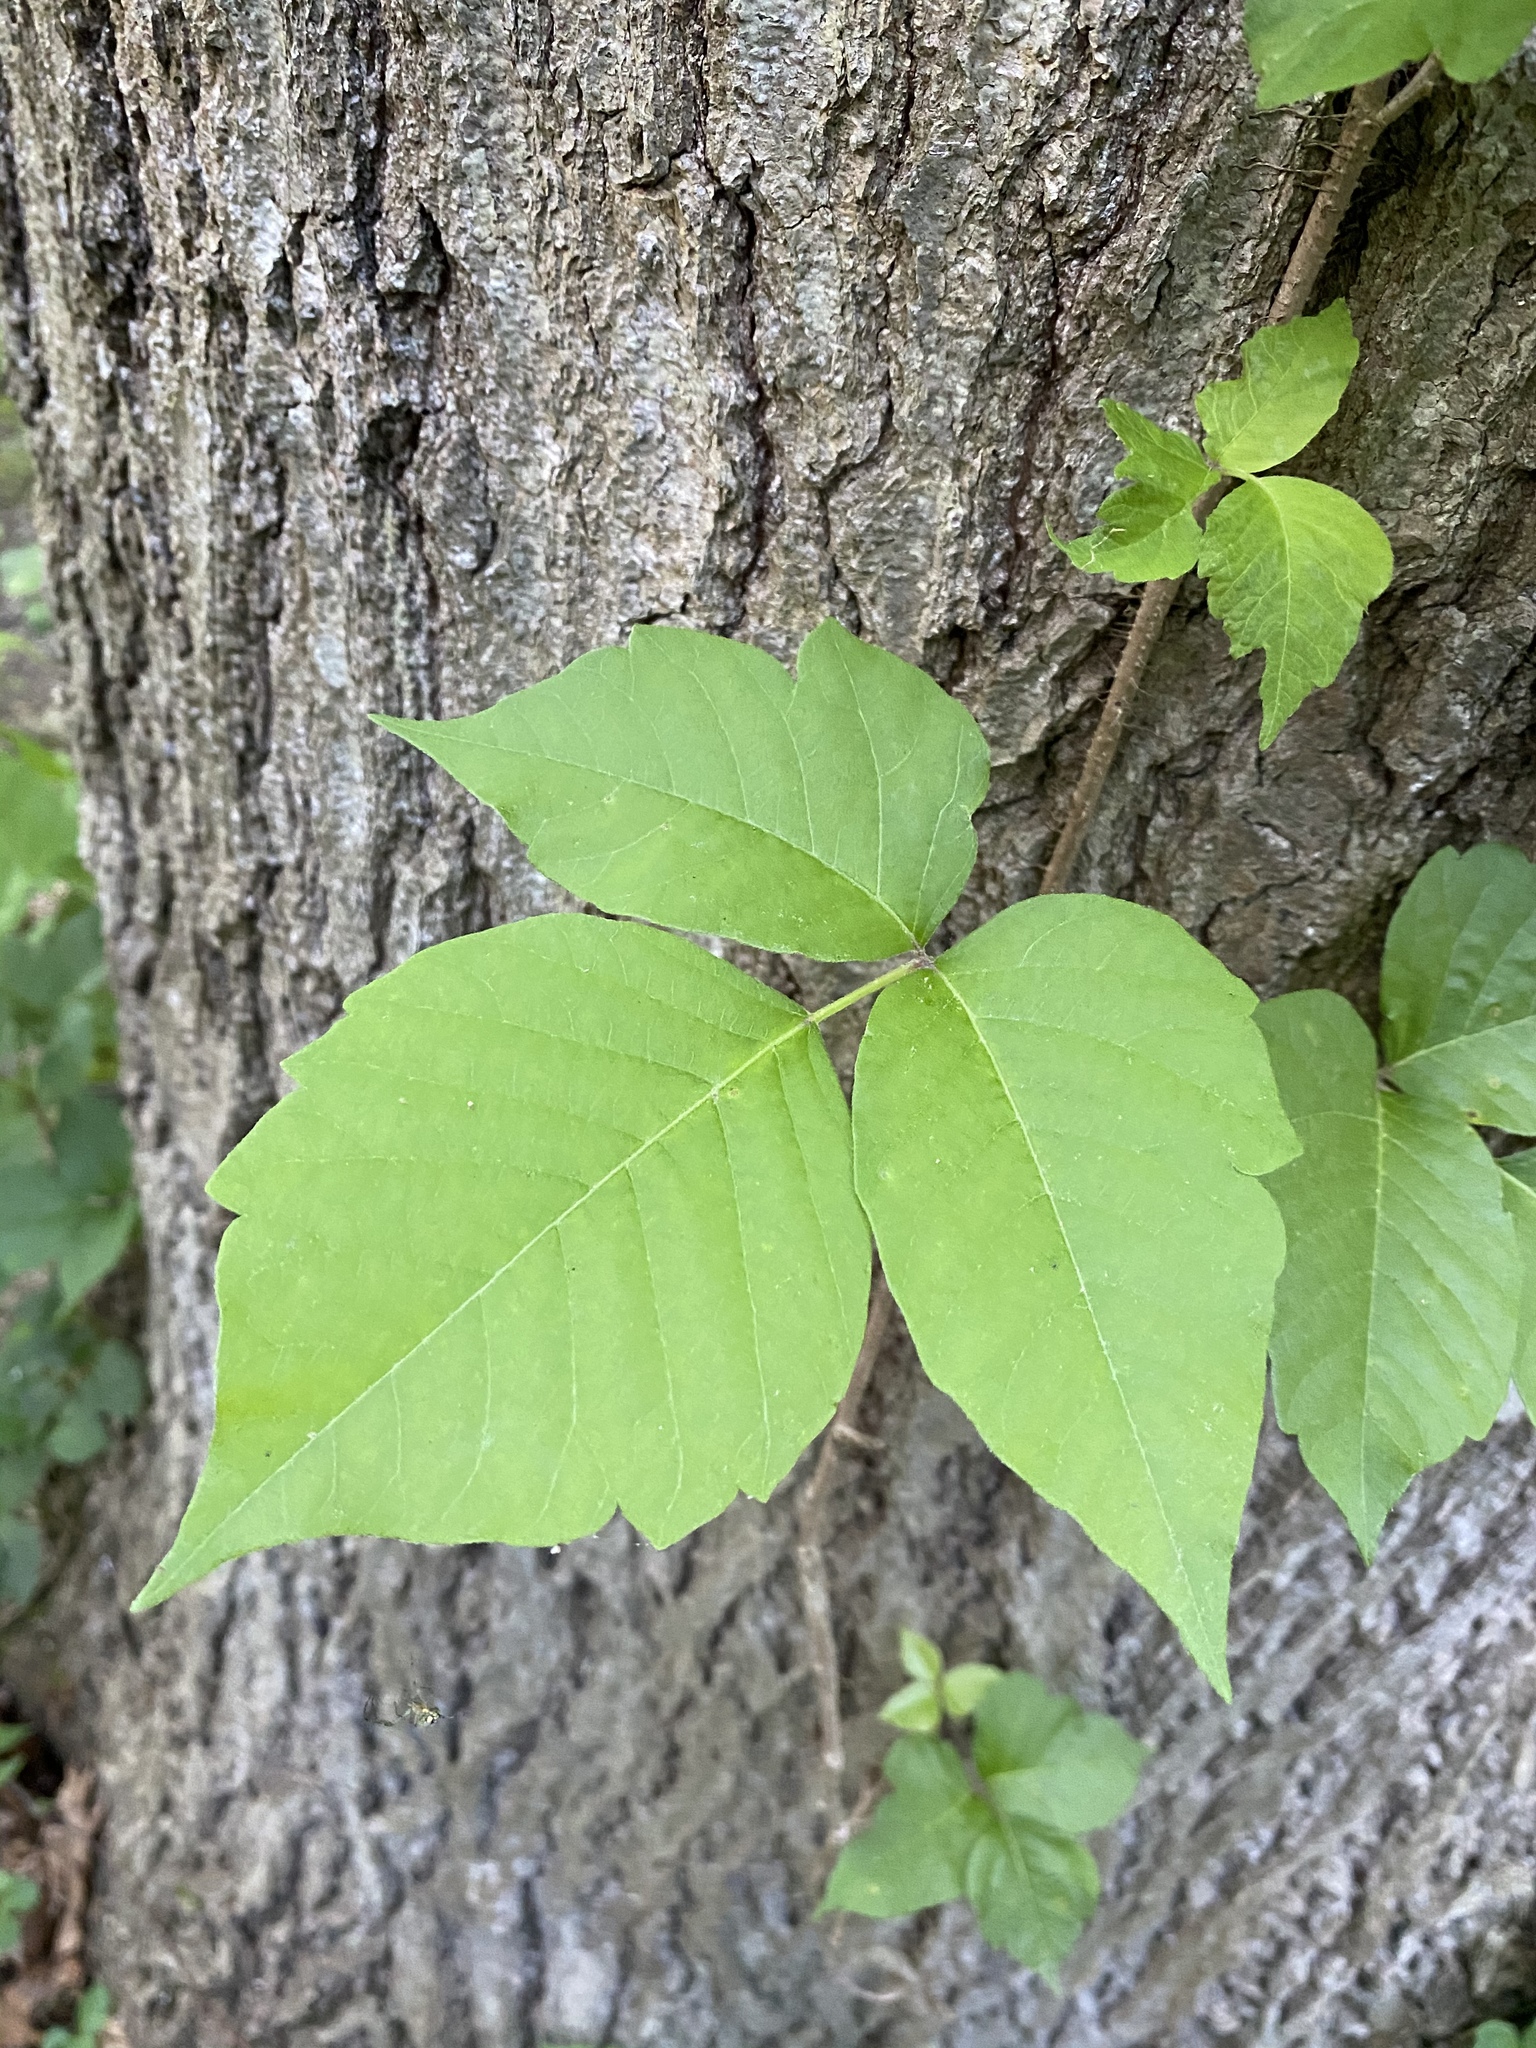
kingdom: Plantae
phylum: Tracheophyta
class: Magnoliopsida
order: Sapindales
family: Anacardiaceae
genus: Toxicodendron
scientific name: Toxicodendron radicans
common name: Poison ivy
